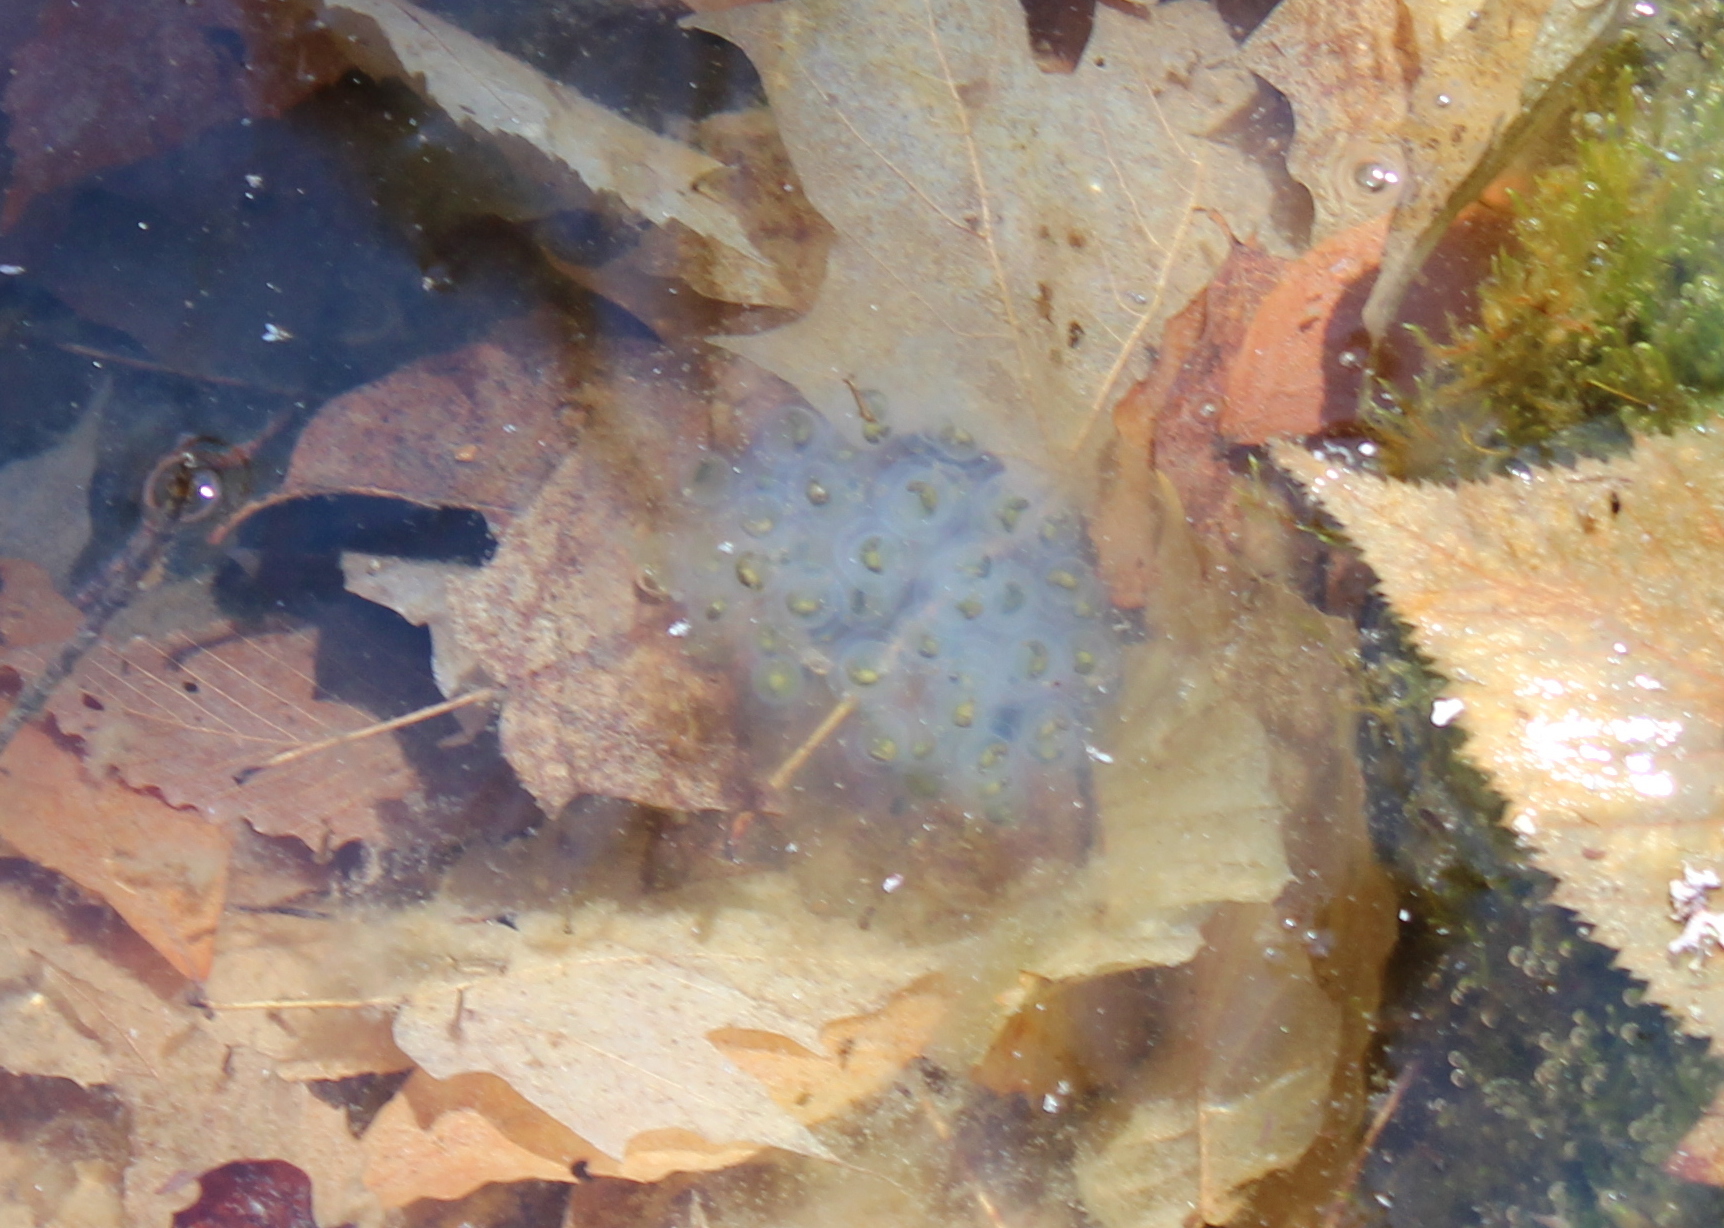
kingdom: Animalia
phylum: Chordata
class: Amphibia
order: Caudata
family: Ambystomatidae
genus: Ambystoma
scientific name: Ambystoma maculatum
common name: Spotted salamander
